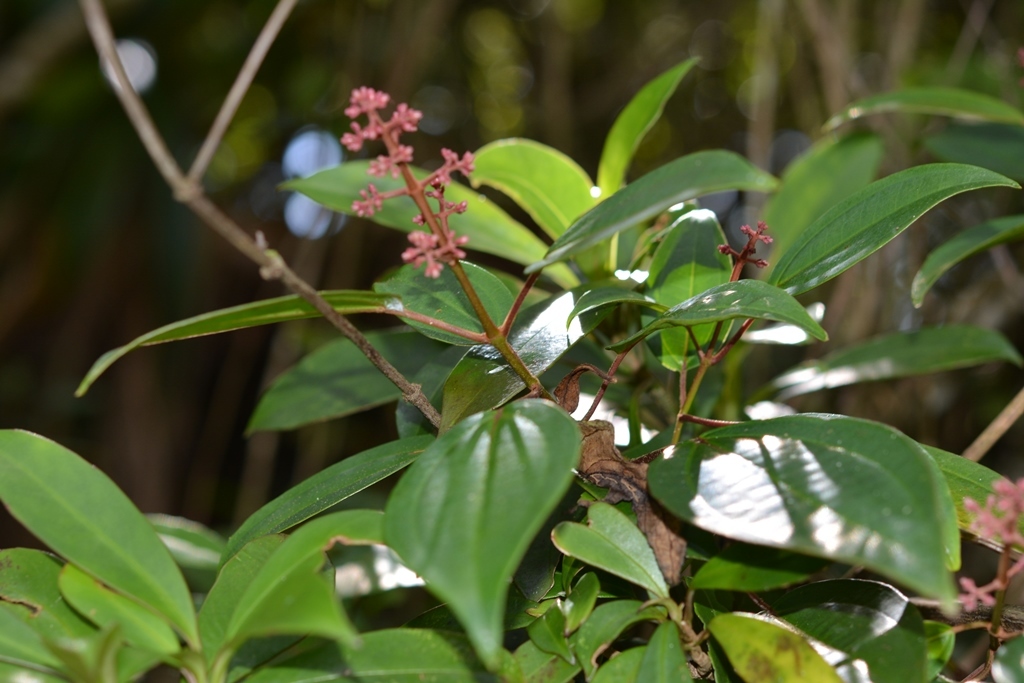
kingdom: Plantae
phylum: Tracheophyta
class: Magnoliopsida
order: Myrtales
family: Melastomataceae
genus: Miconia
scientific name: Miconia mexicana
